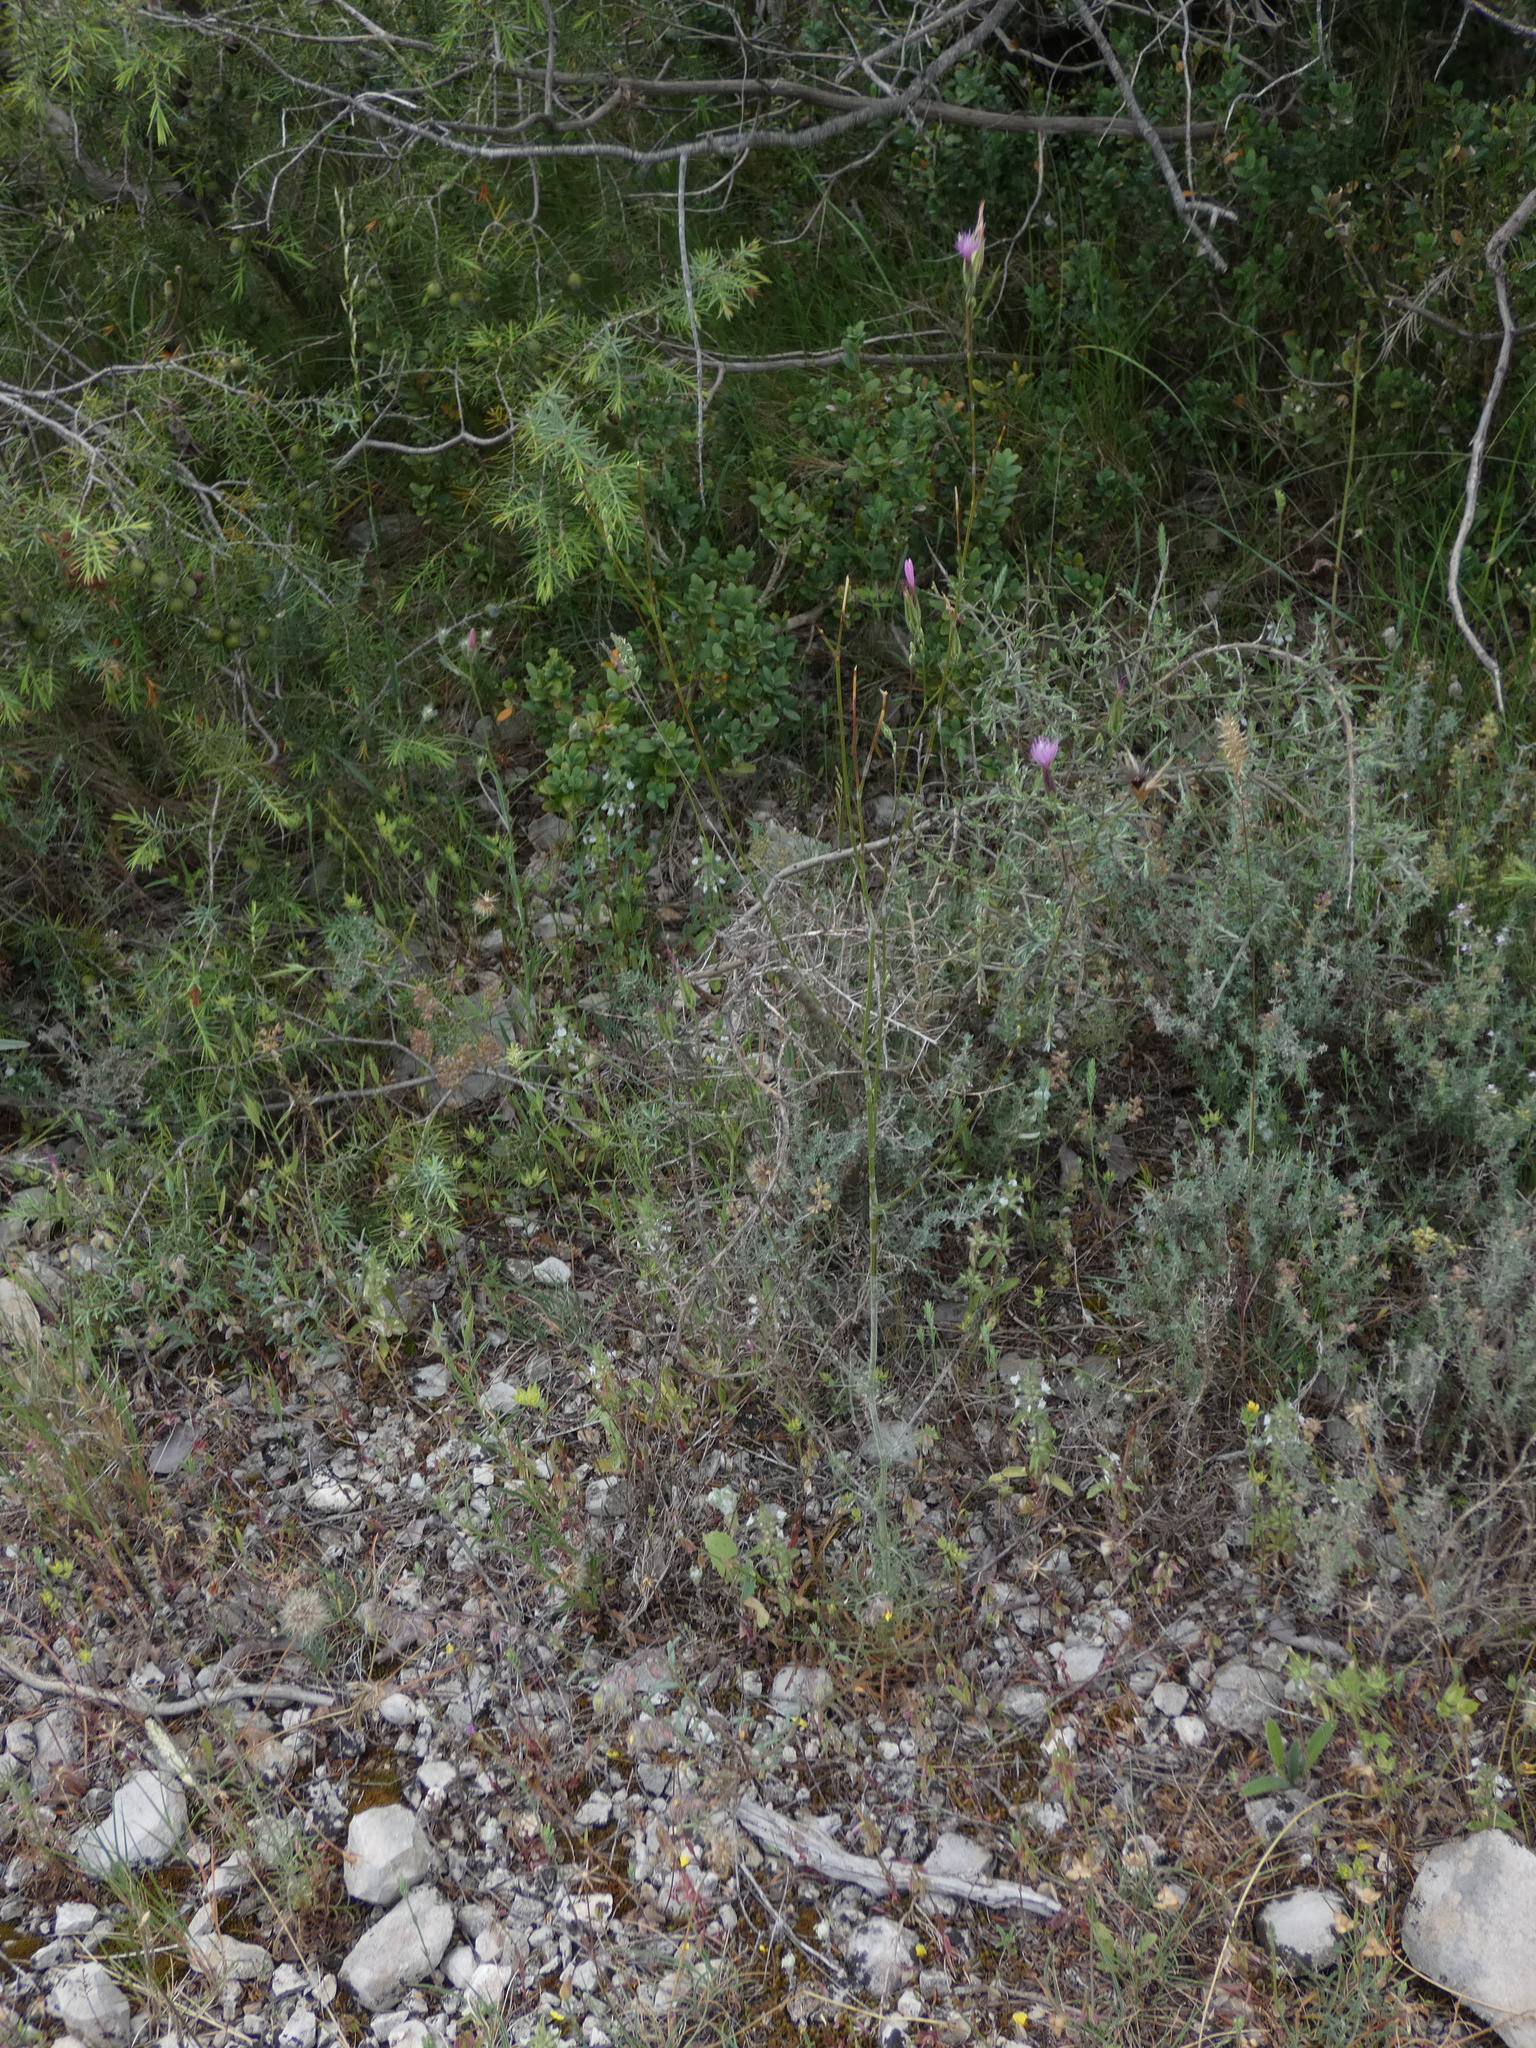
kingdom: Plantae
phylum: Tracheophyta
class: Magnoliopsida
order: Asterales
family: Asteraceae
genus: Crupina
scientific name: Crupina vulgaris
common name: Common crupina
